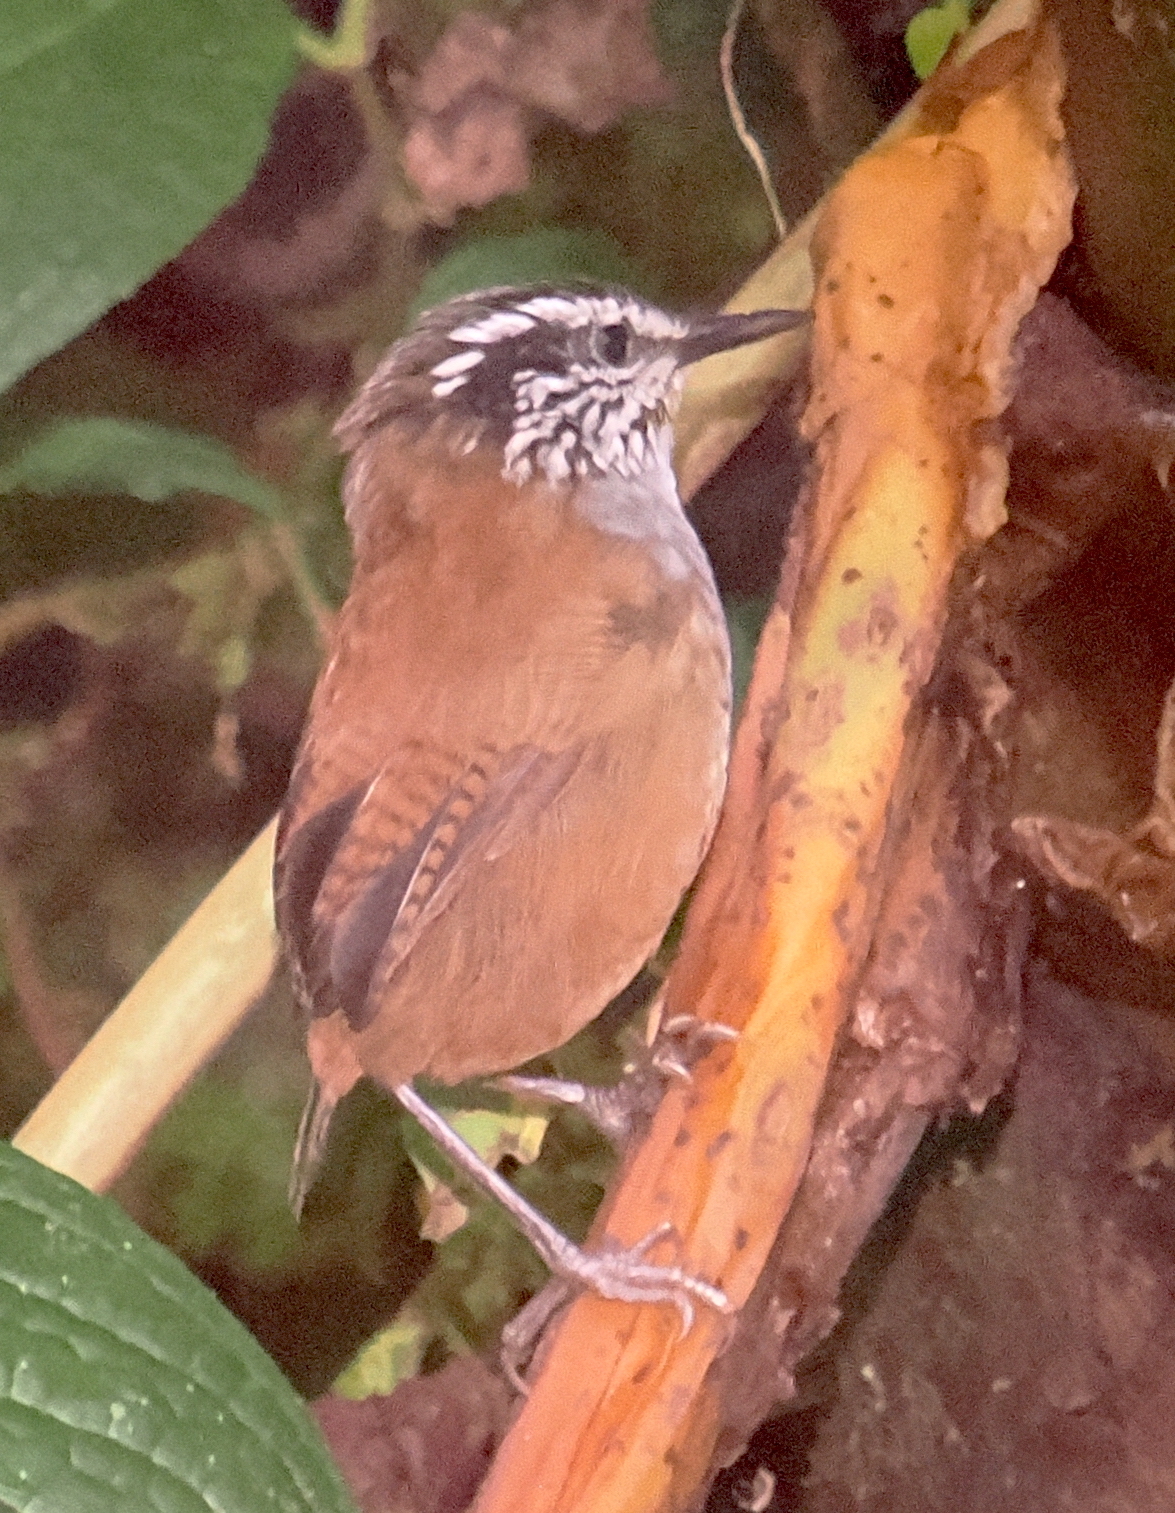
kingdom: Animalia
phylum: Chordata
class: Aves
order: Passeriformes
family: Troglodytidae
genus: Henicorhina
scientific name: Henicorhina leucophrys
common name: Gray-breasted wood-wren
